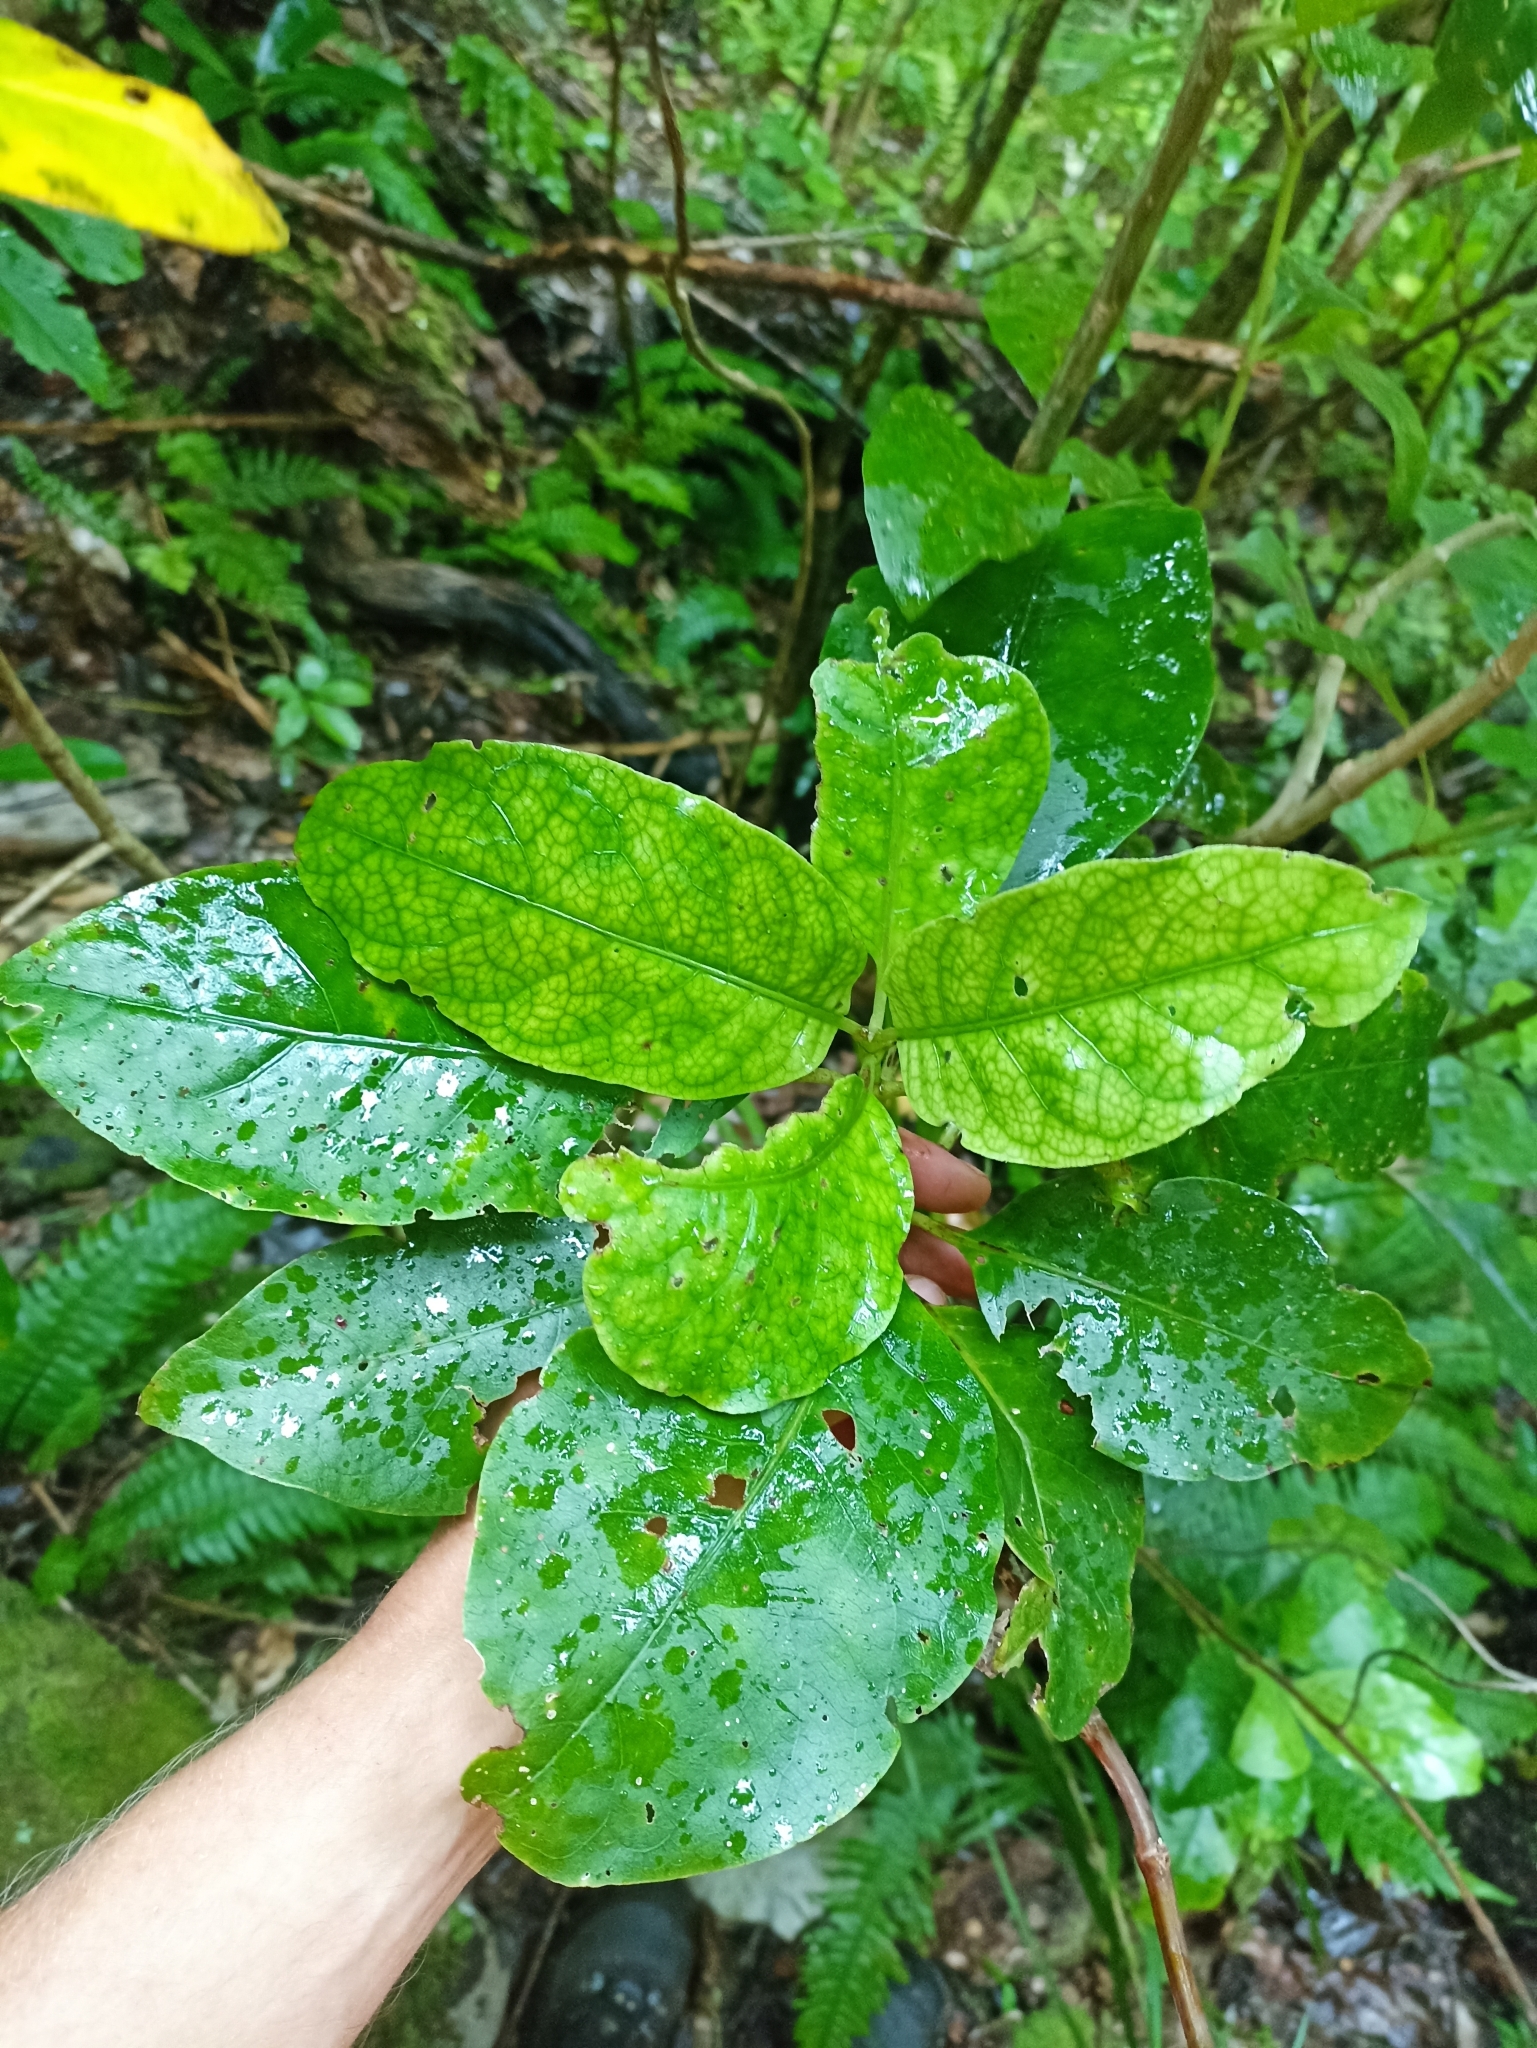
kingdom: Plantae
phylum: Tracheophyta
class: Magnoliopsida
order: Gentianales
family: Rubiaceae
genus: Coprosma
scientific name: Coprosma autumnalis
